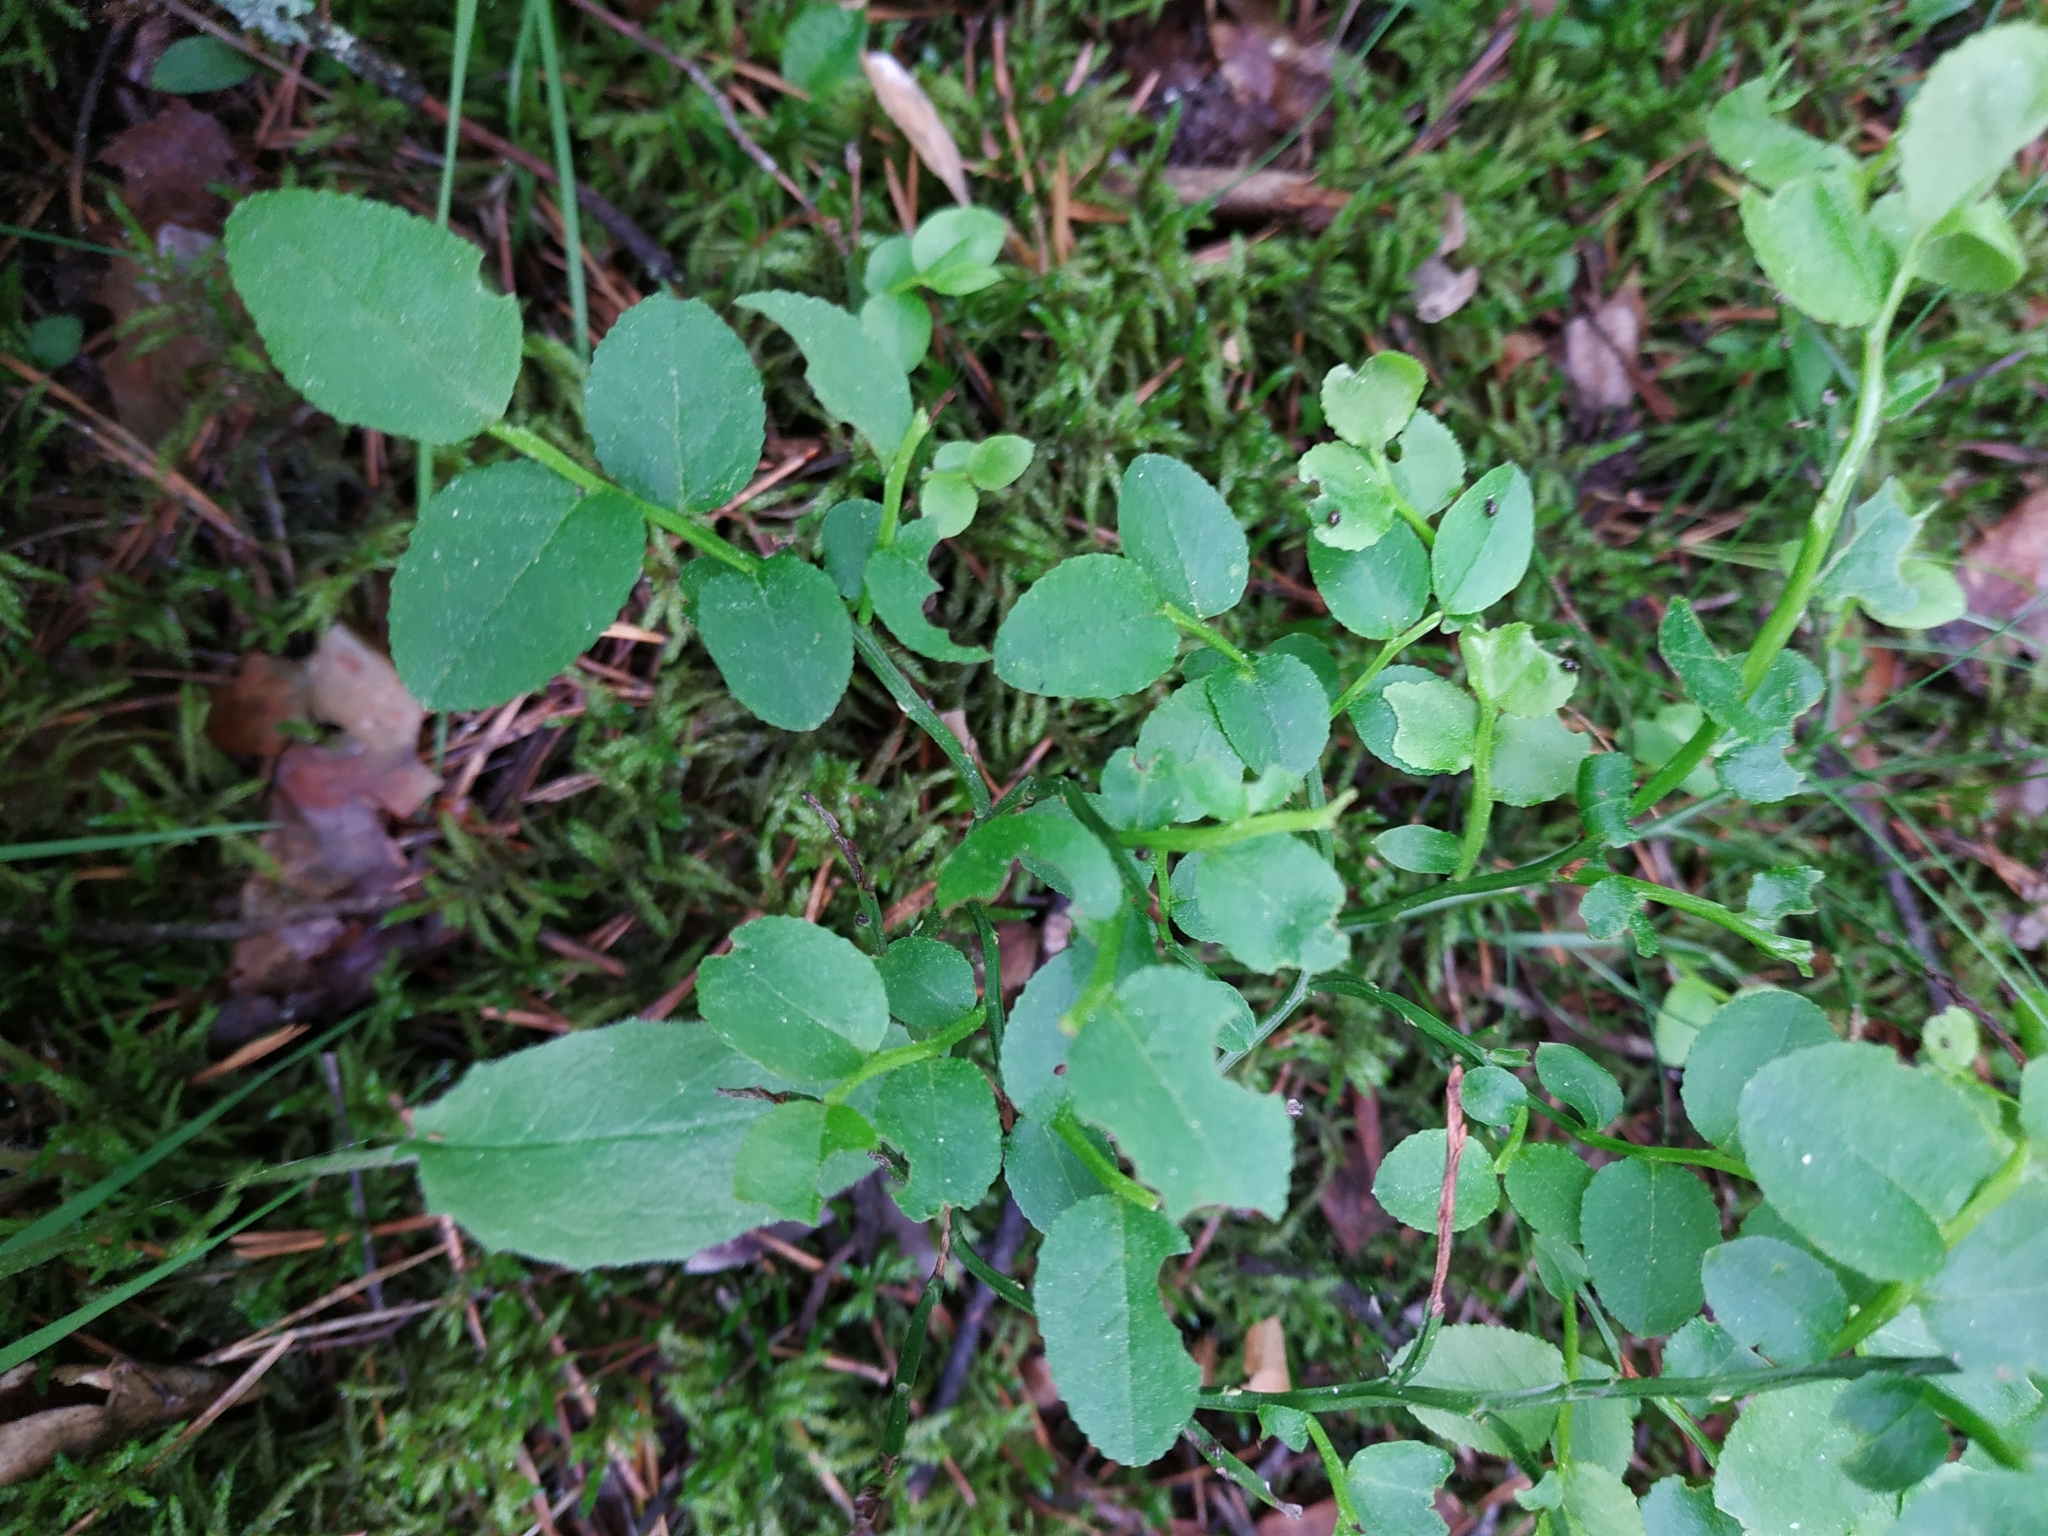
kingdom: Plantae
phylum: Tracheophyta
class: Magnoliopsida
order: Ericales
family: Ericaceae
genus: Vaccinium
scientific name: Vaccinium myrtillus
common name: Bilberry
